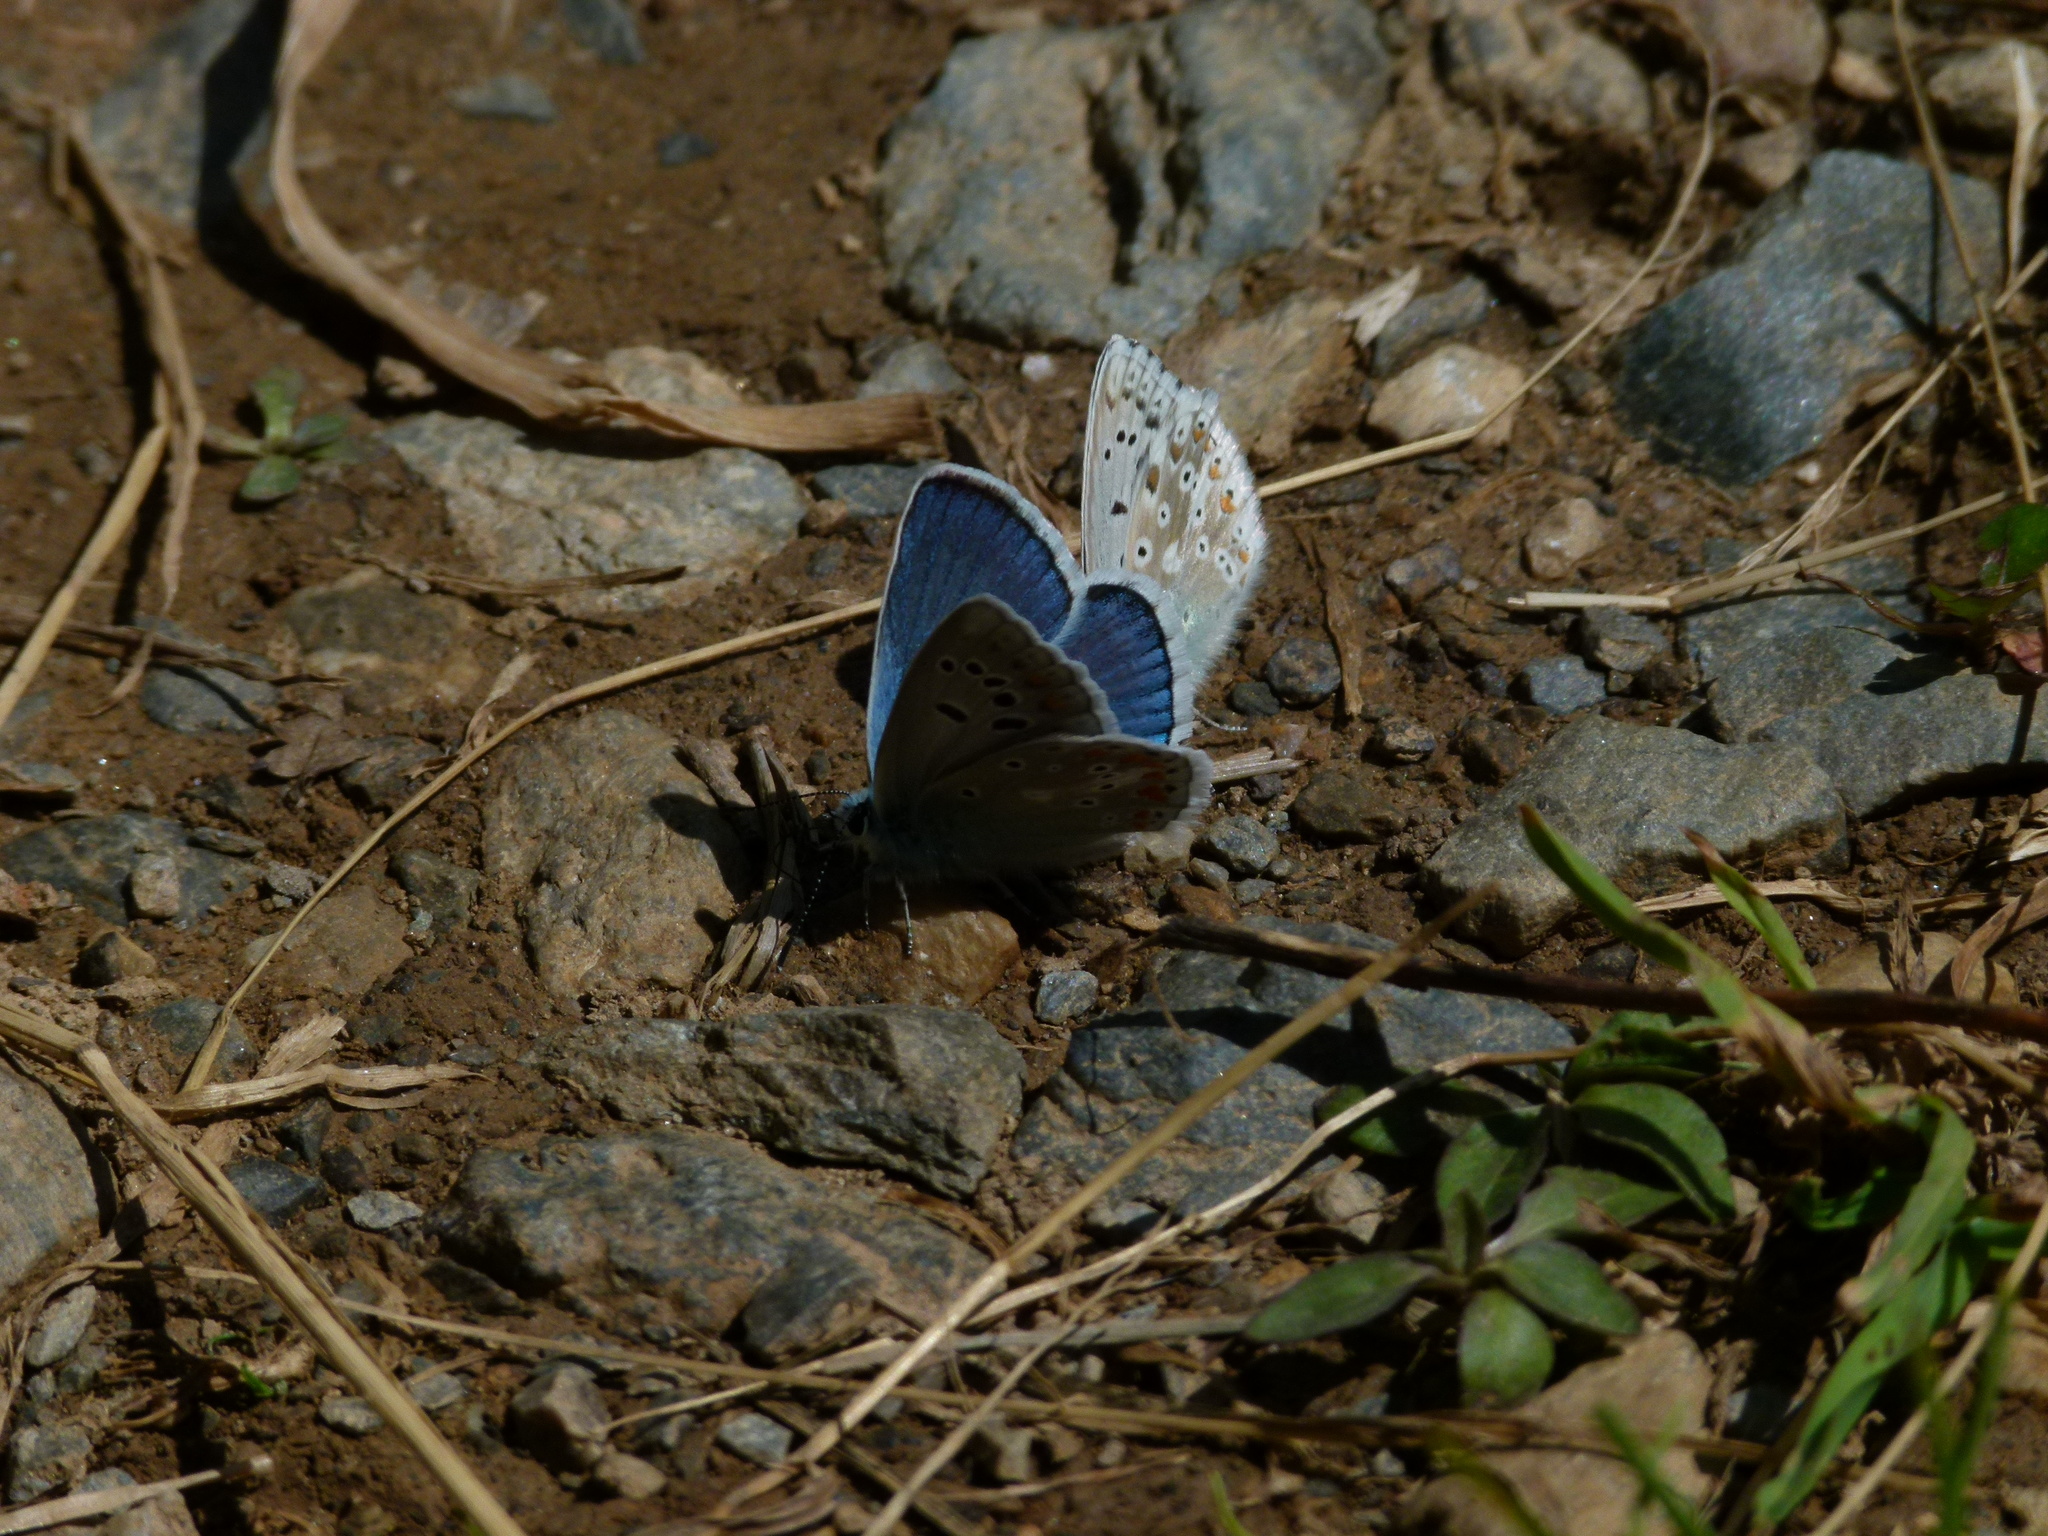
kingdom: Animalia
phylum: Arthropoda
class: Insecta
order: Lepidoptera
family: Lycaenidae
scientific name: Lycaenidae
